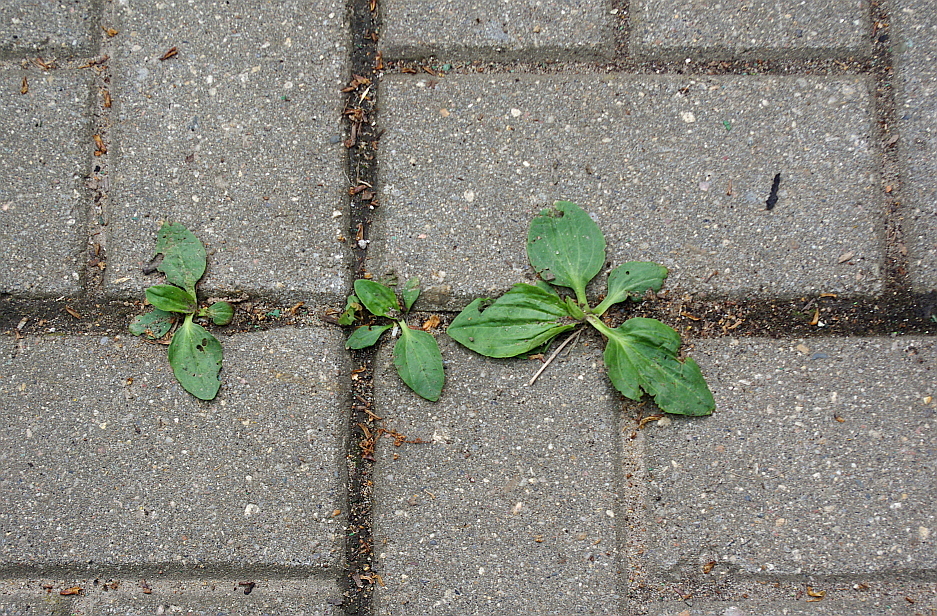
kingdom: Plantae
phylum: Tracheophyta
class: Magnoliopsida
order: Lamiales
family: Plantaginaceae
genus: Plantago
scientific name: Plantago major
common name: Common plantain
